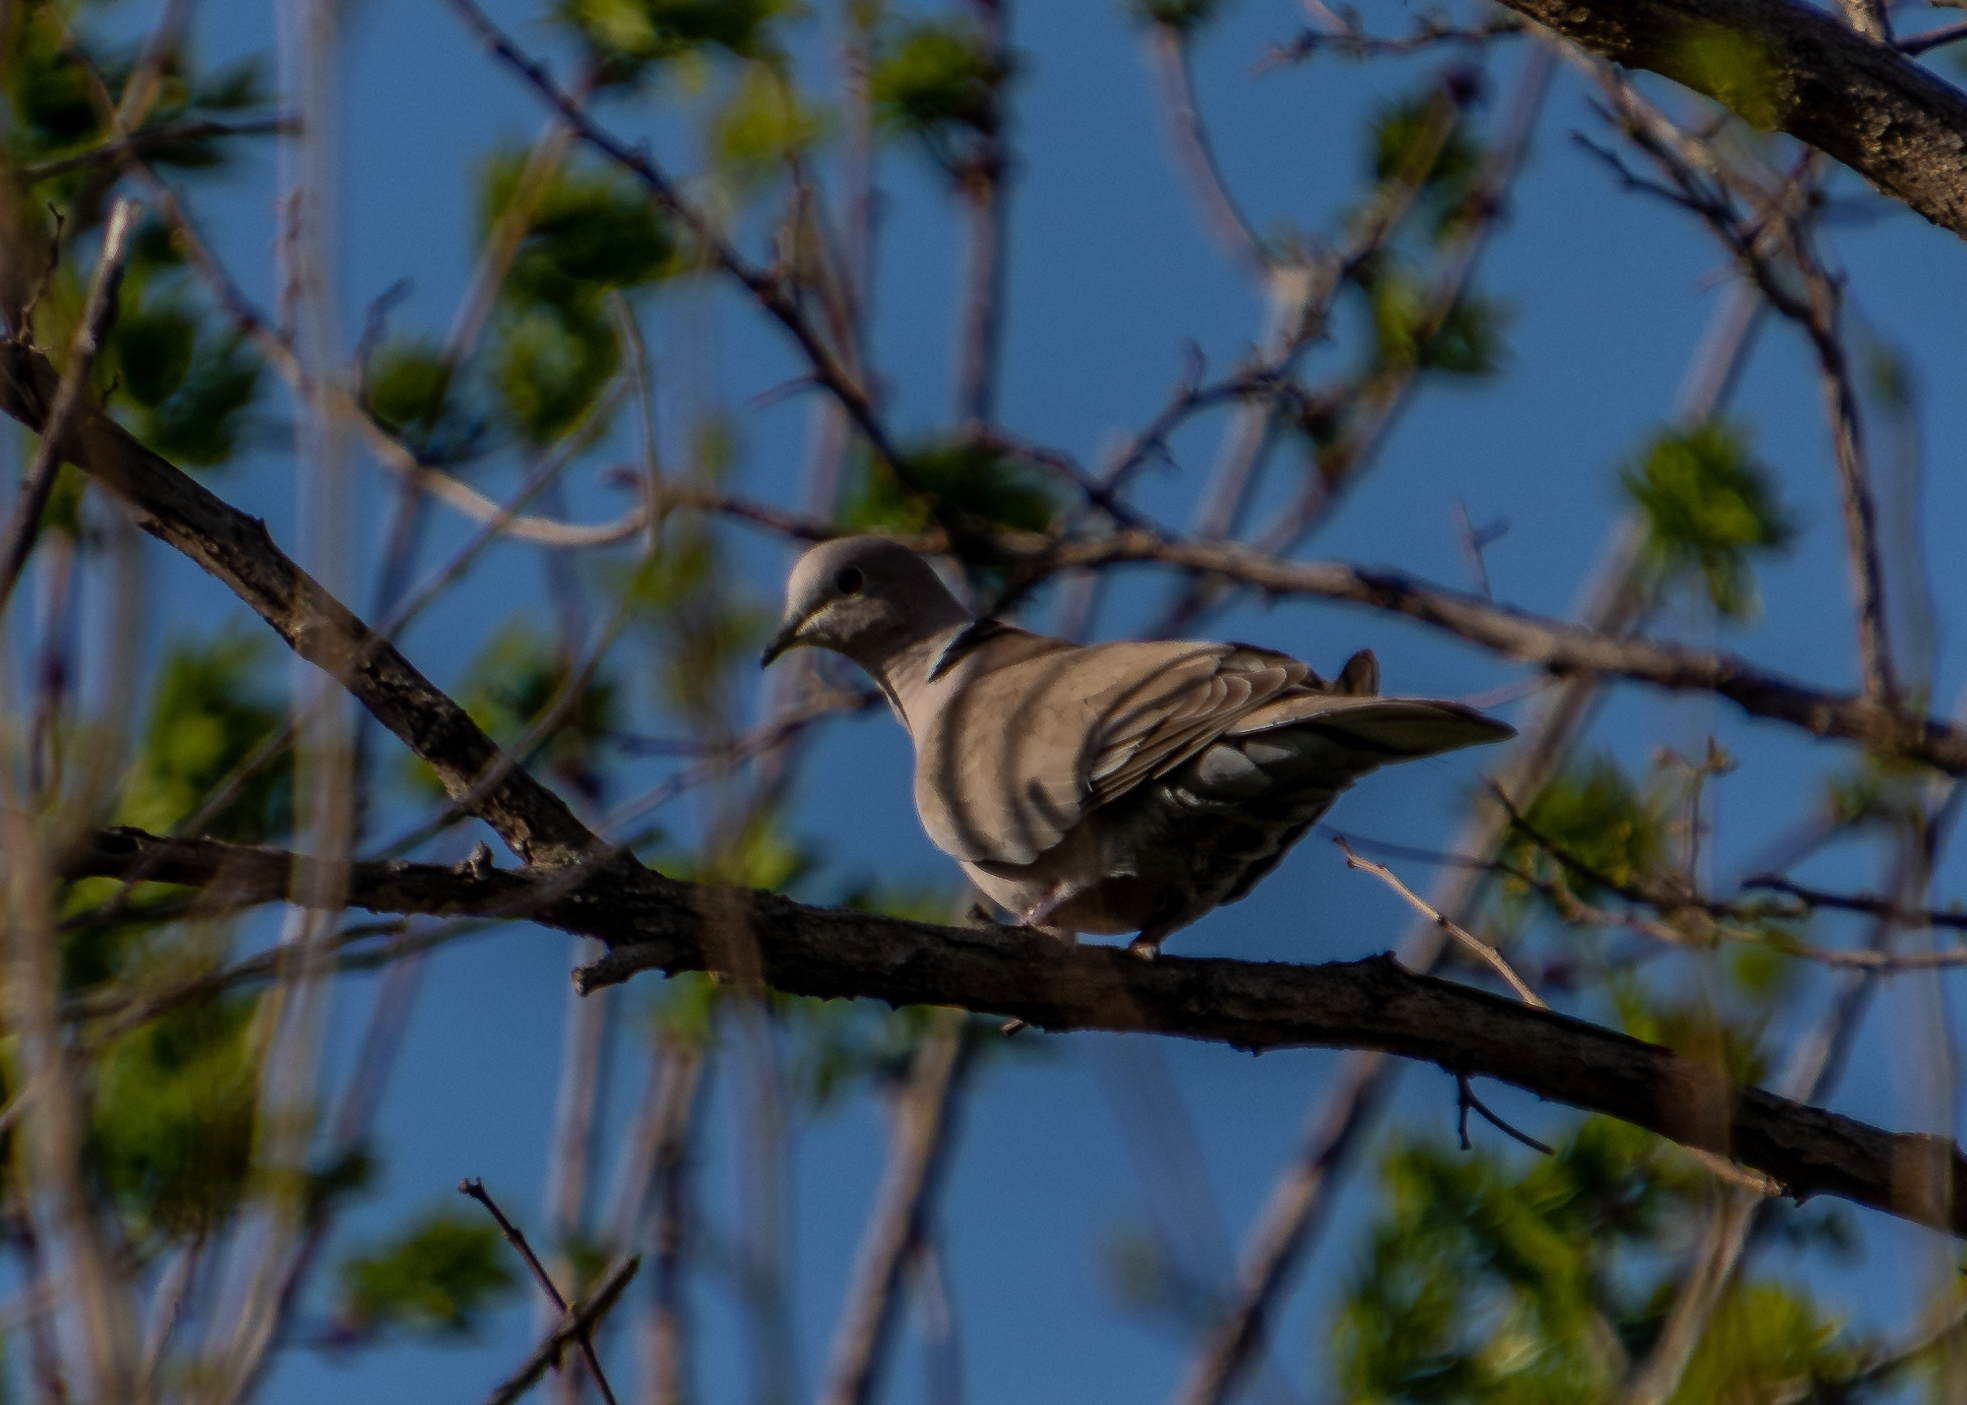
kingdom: Animalia
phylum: Chordata
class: Aves
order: Columbiformes
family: Columbidae
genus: Streptopelia
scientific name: Streptopelia decaocto
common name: Eurasian collared dove
